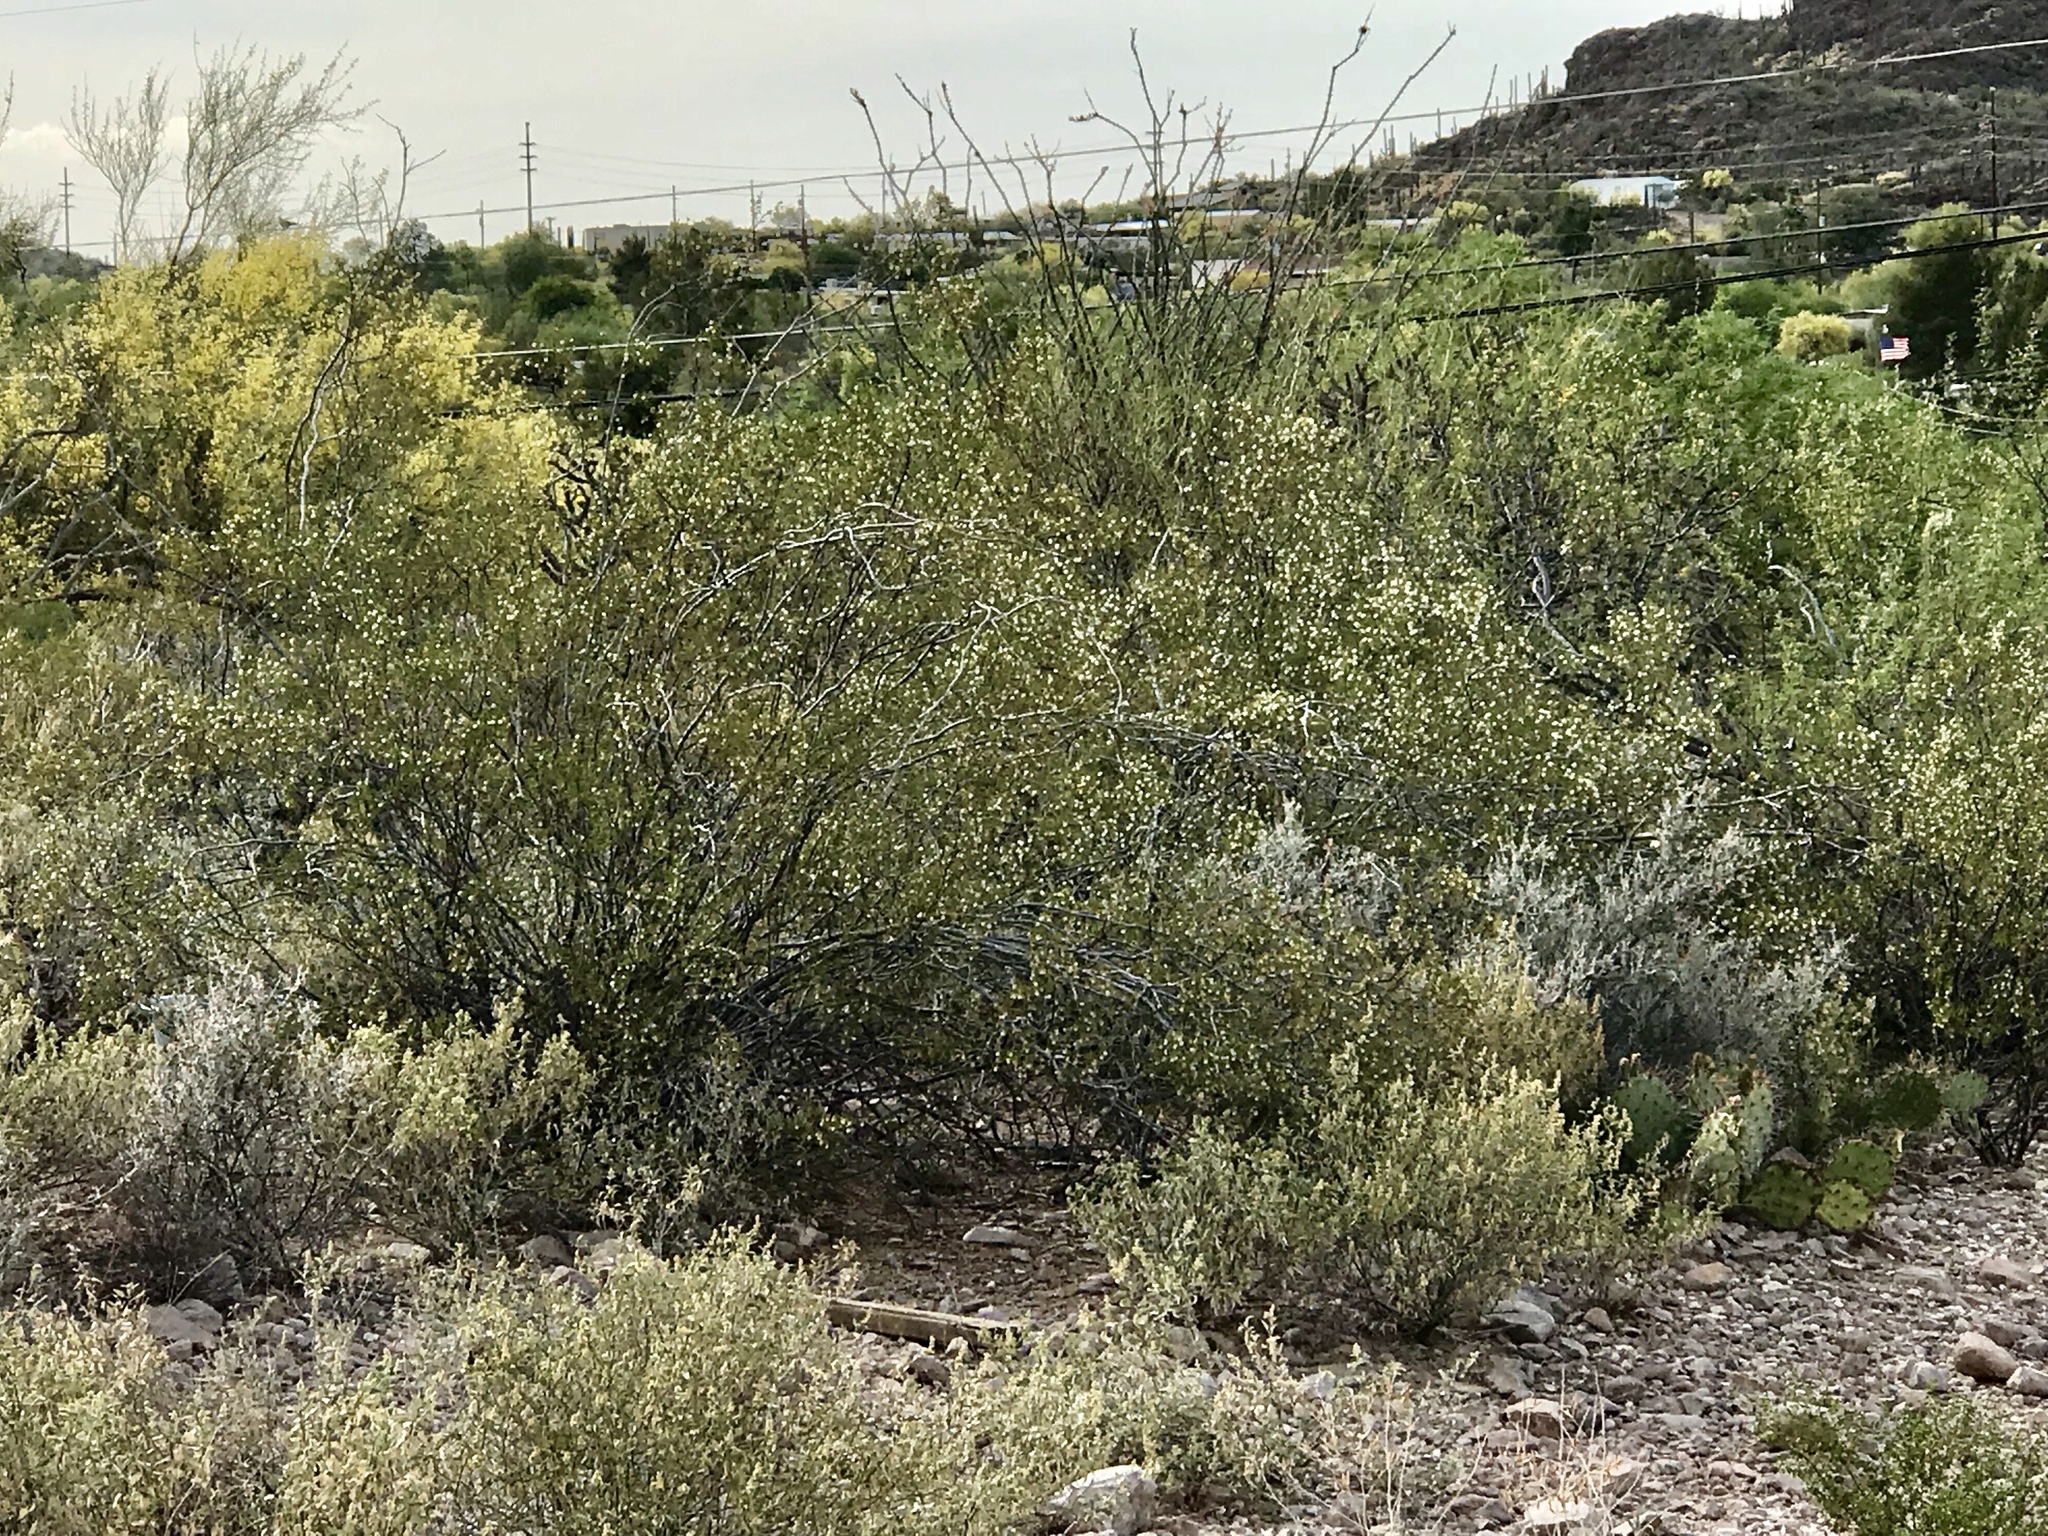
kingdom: Plantae
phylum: Tracheophyta
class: Magnoliopsida
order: Zygophyllales
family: Zygophyllaceae
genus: Larrea
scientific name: Larrea tridentata
